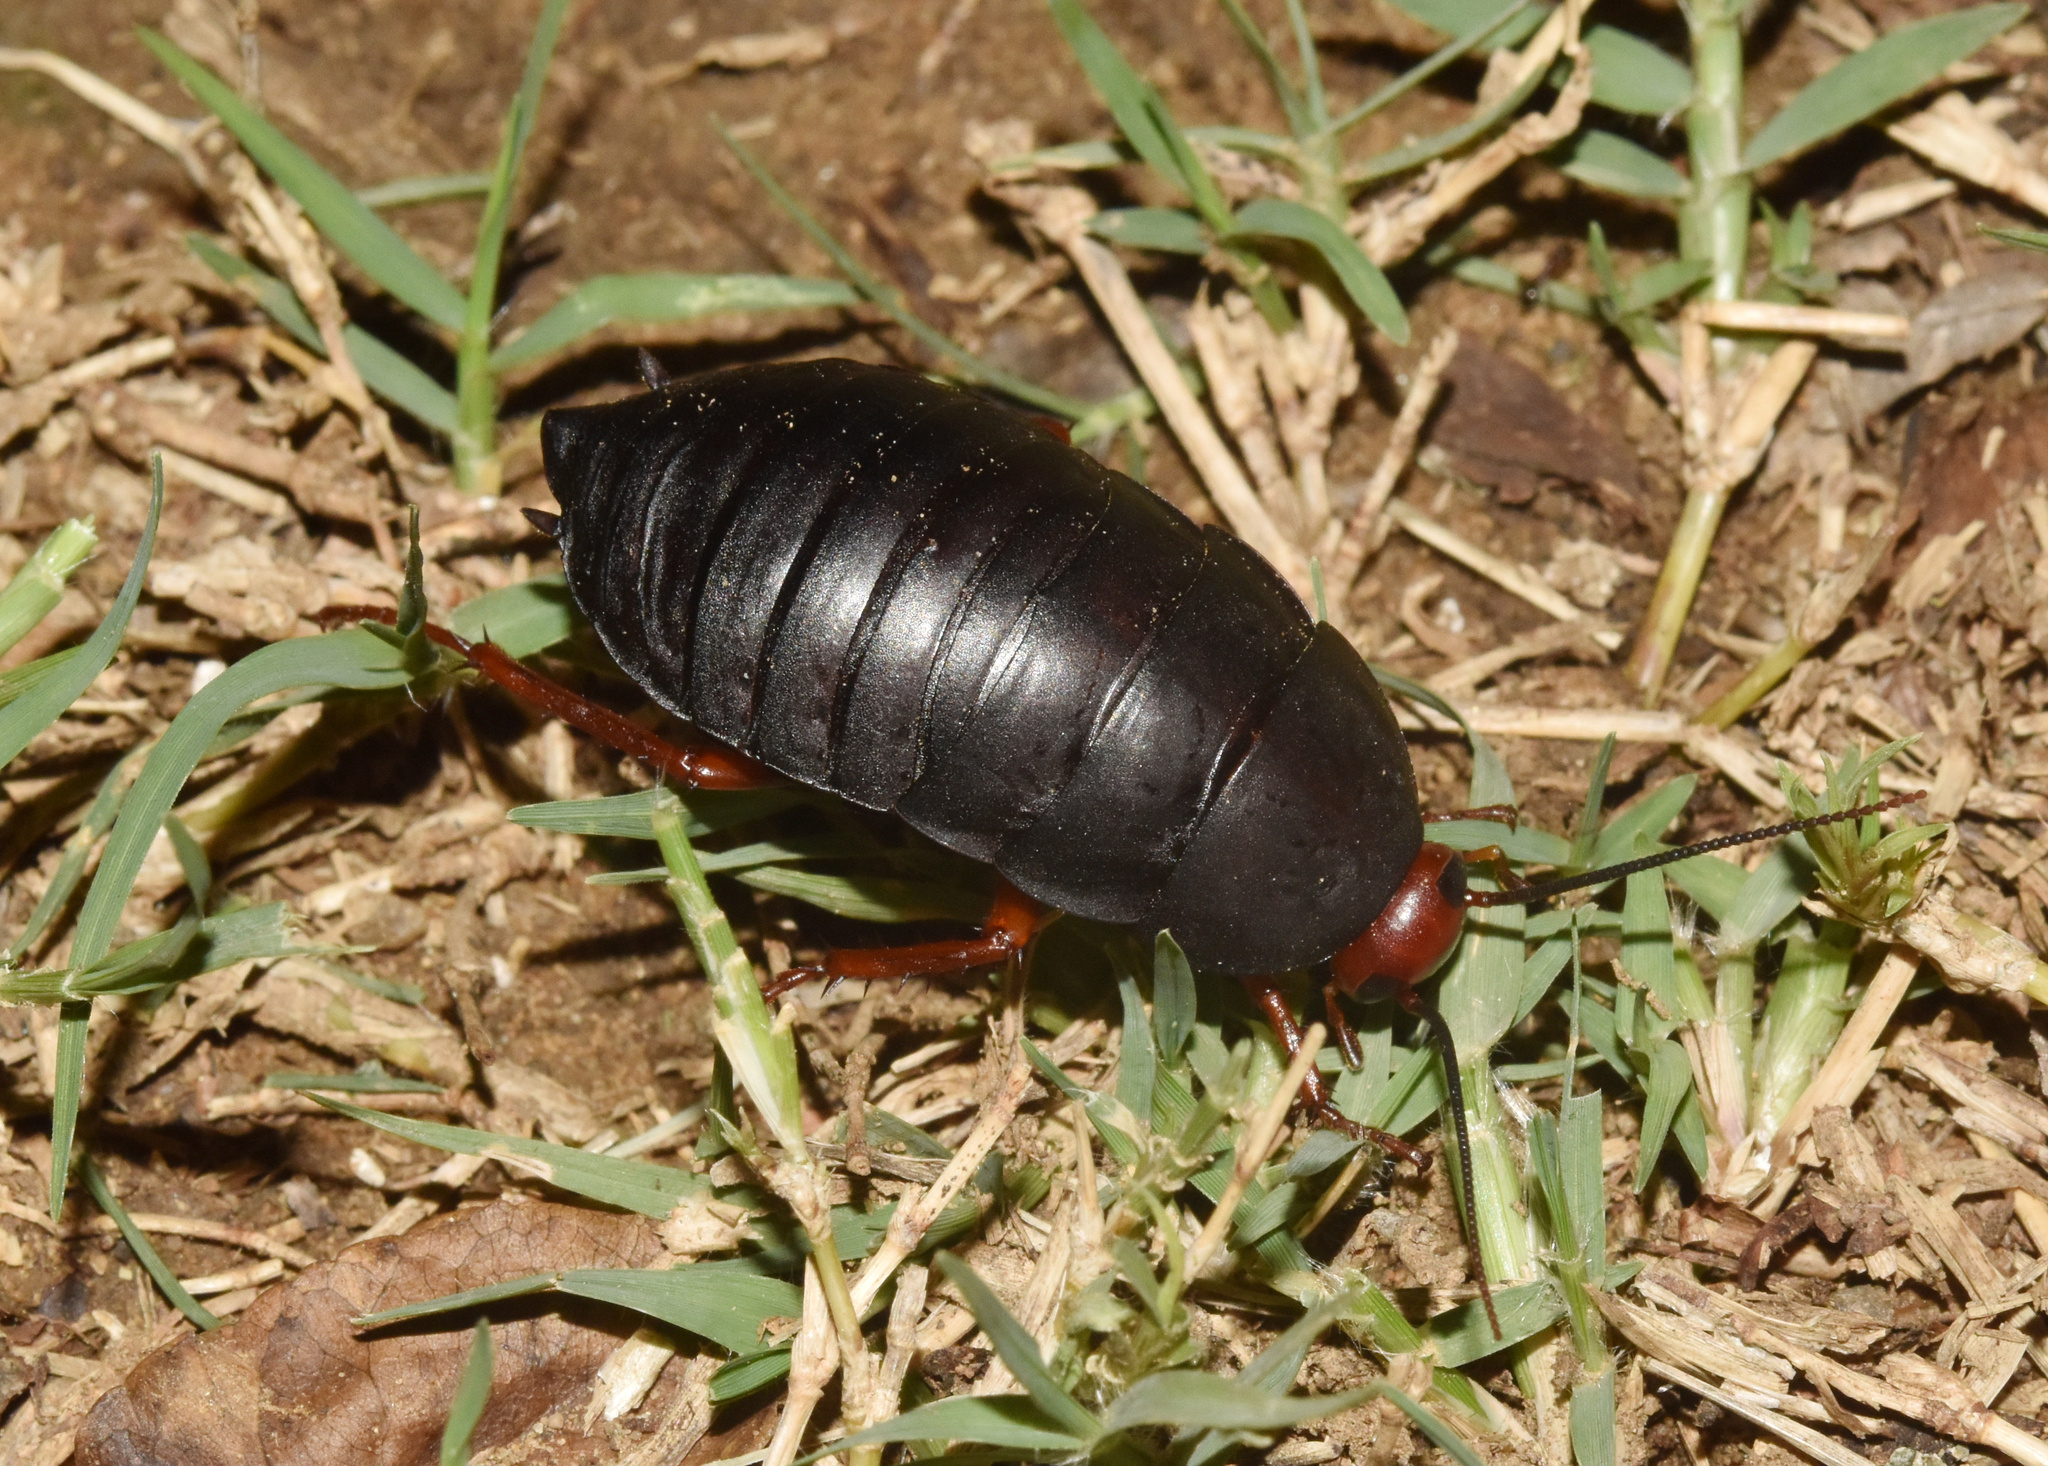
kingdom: Animalia
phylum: Arthropoda
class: Insecta
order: Blattodea
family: Blattidae
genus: Deropeltis
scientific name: Deropeltis erythrocephala
